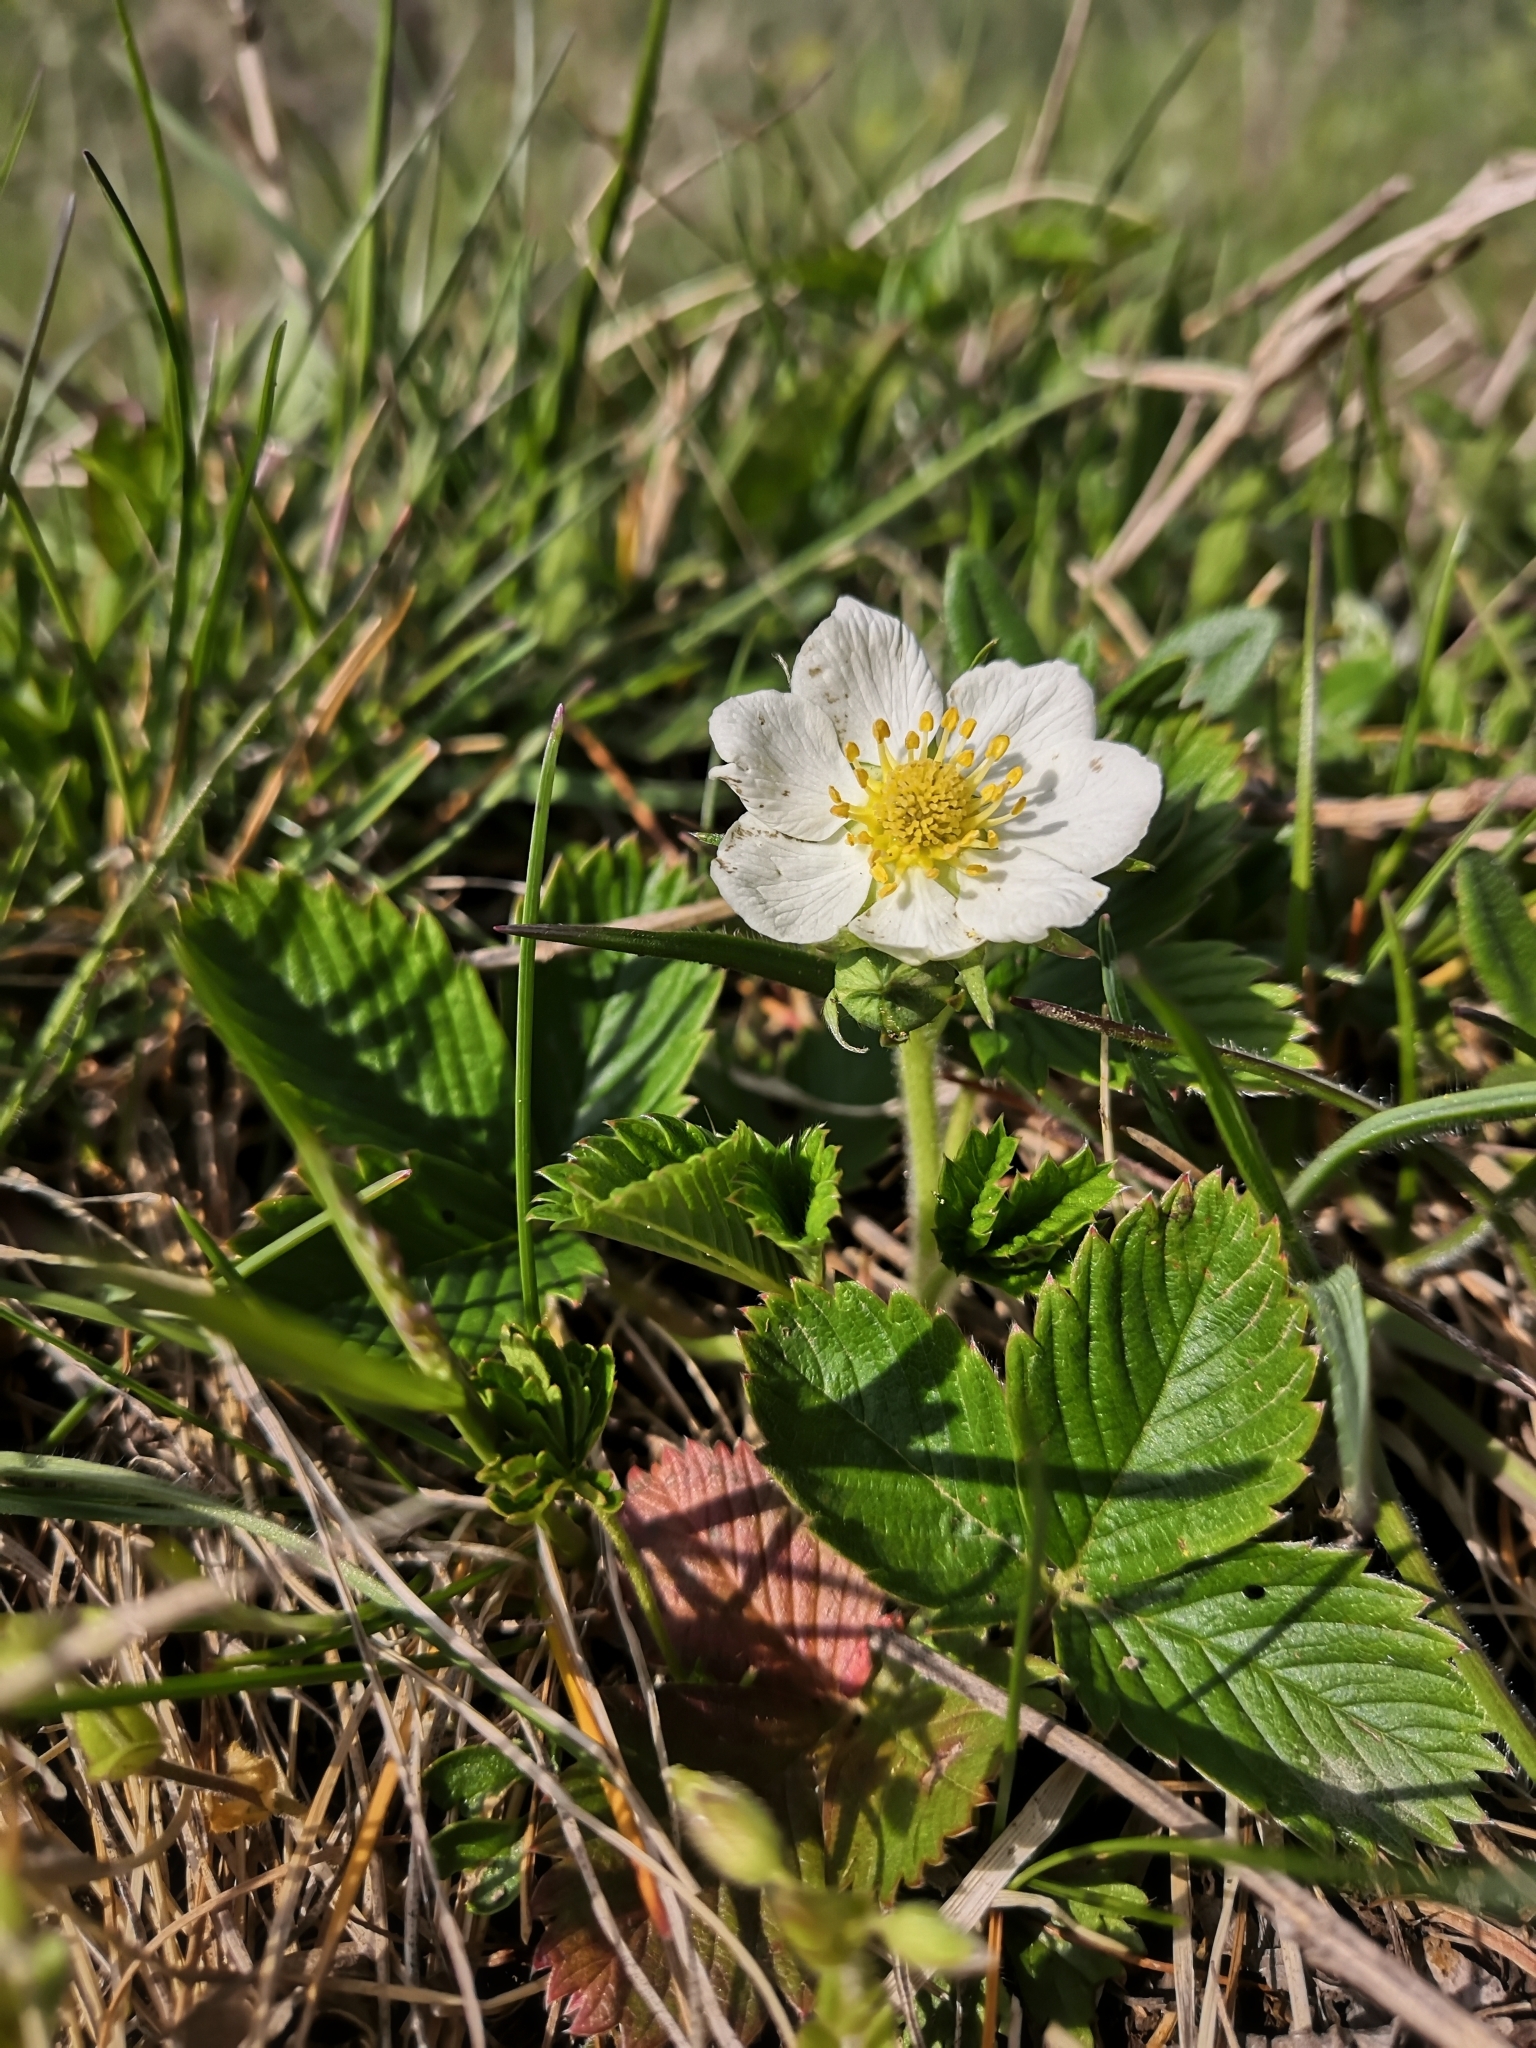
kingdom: Plantae
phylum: Tracheophyta
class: Magnoliopsida
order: Rosales
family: Rosaceae
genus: Fragaria
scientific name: Fragaria viridis
